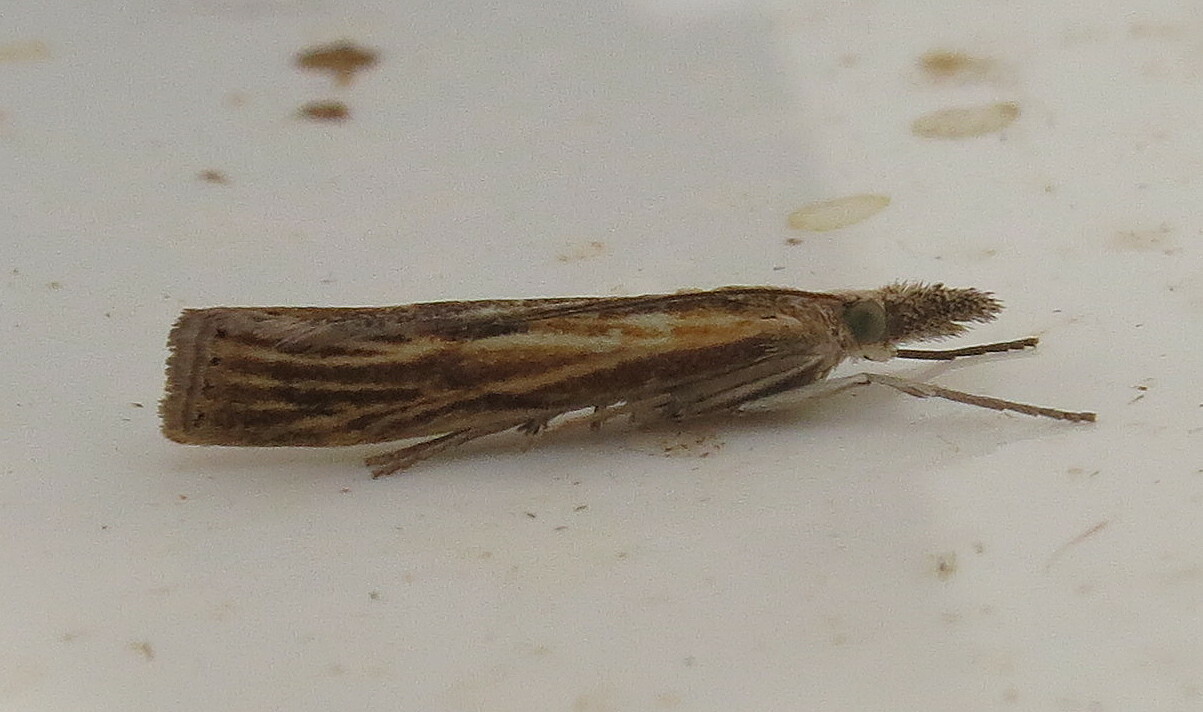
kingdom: Animalia
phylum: Arthropoda
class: Insecta
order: Lepidoptera
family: Crambidae
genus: Agriphila
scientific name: Agriphila inquinatella
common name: Barred grass-veneer
